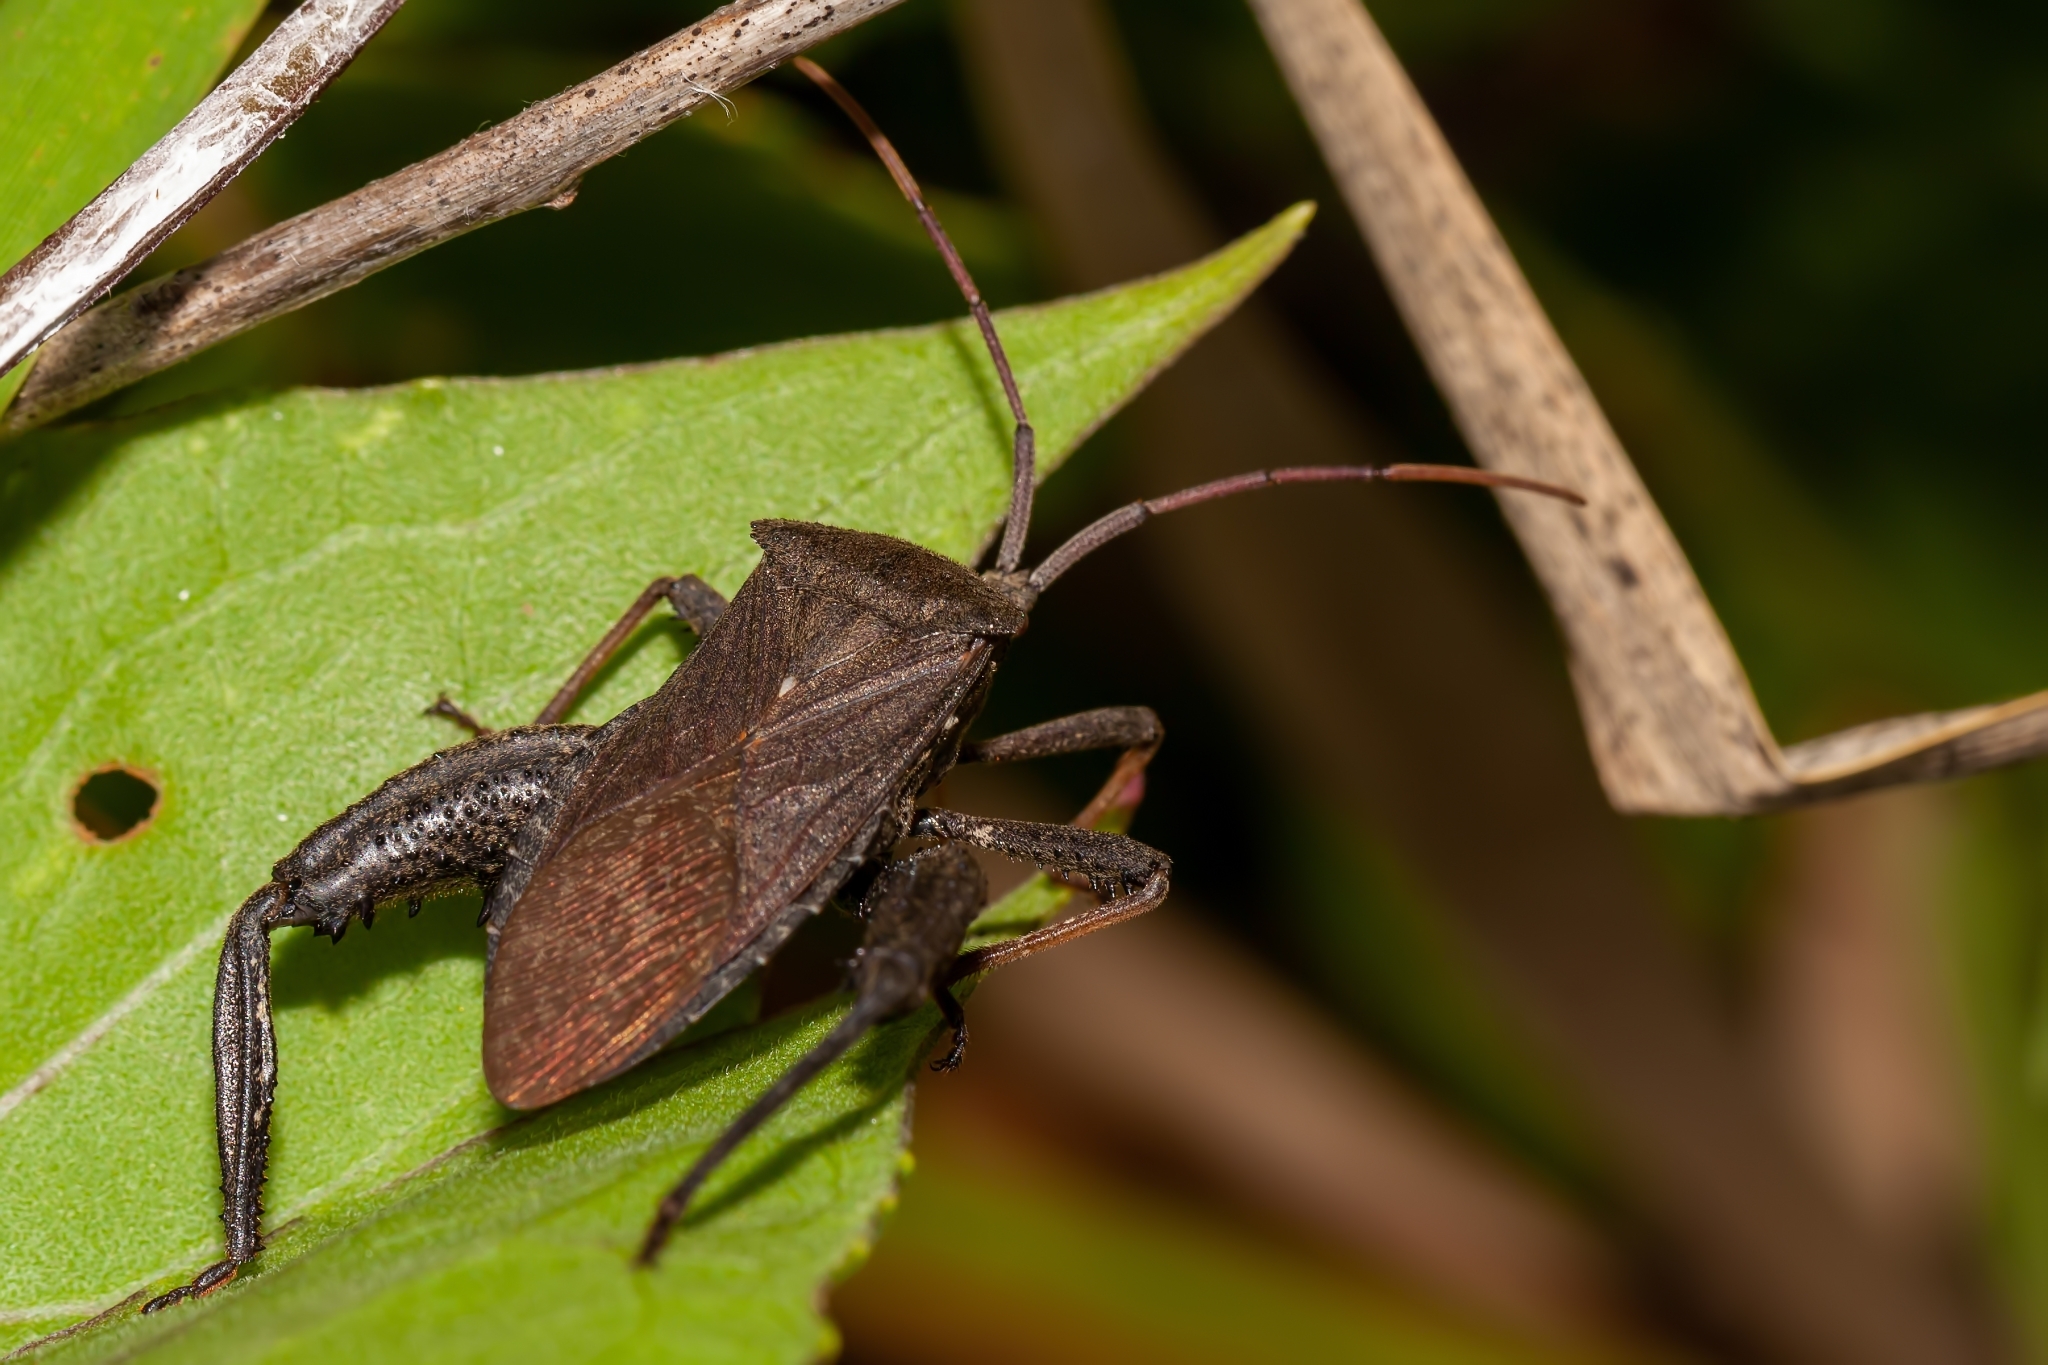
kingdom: Animalia
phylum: Arthropoda
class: Insecta
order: Hemiptera
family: Coreidae
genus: Acanthocephala
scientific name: Acanthocephala femorata
